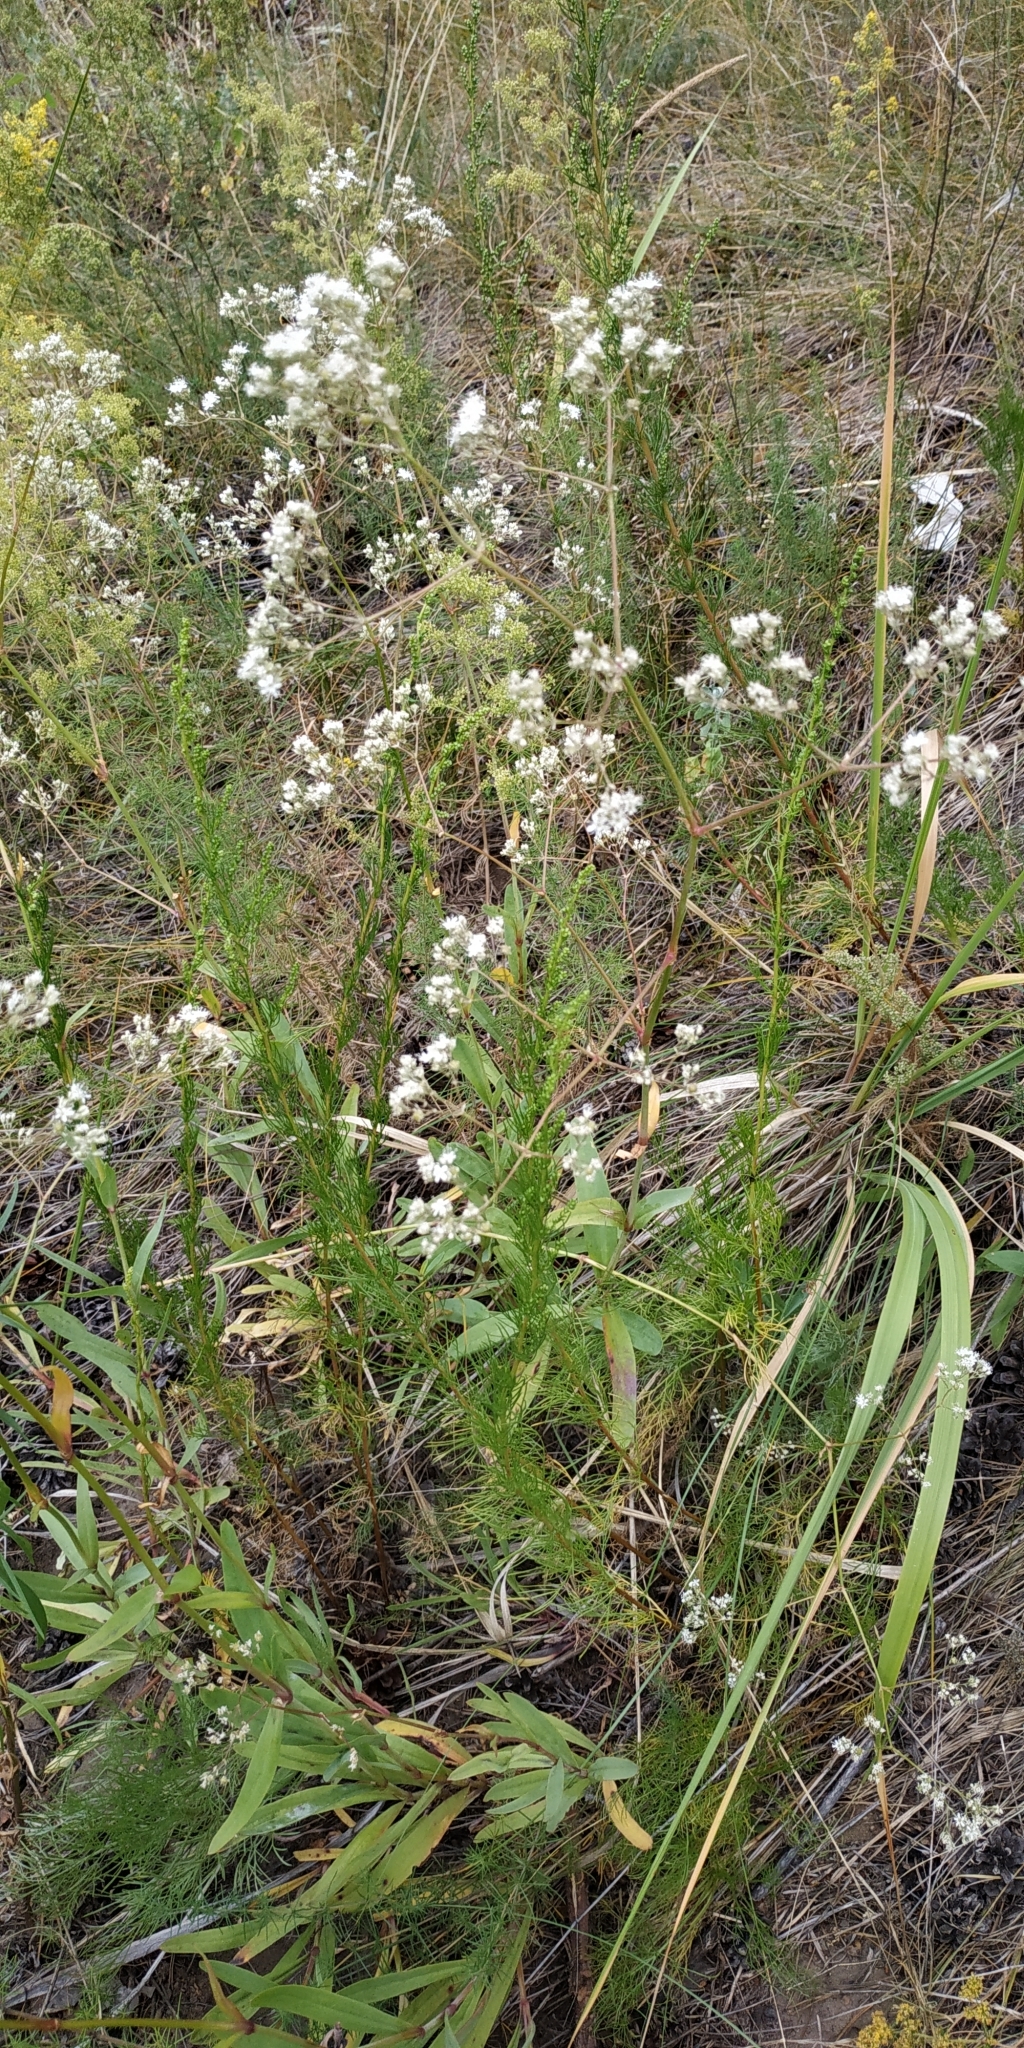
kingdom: Plantae
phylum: Tracheophyta
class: Magnoliopsida
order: Caryophyllales
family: Caryophyllaceae
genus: Gypsophila
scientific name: Gypsophila altissima
